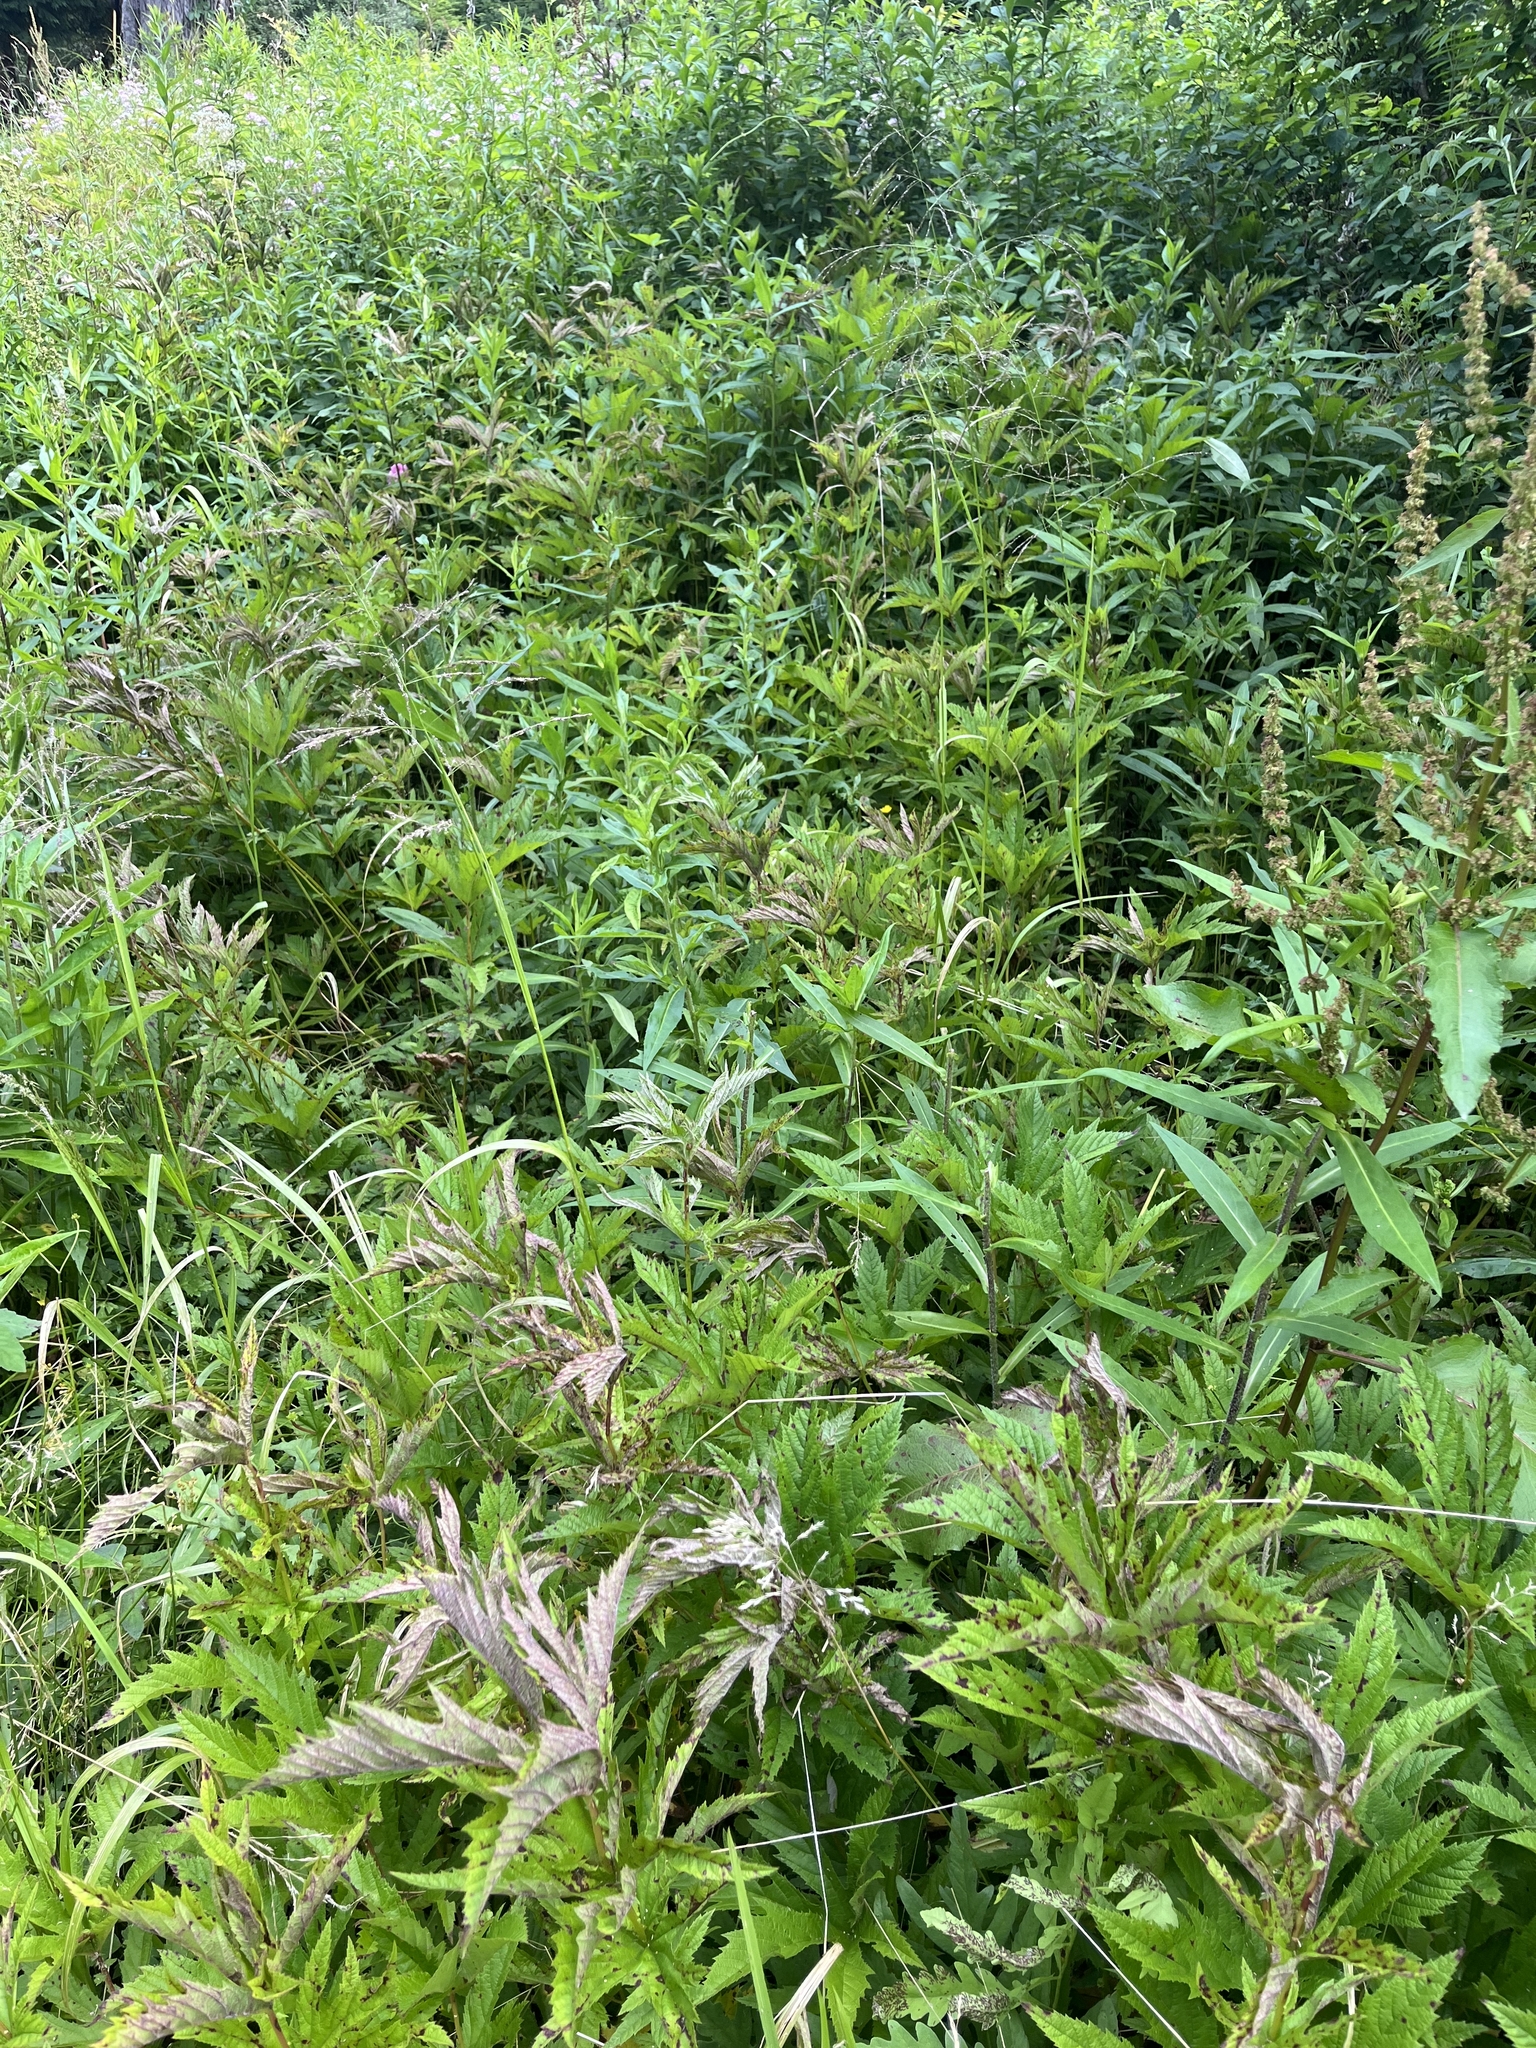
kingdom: Plantae
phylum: Tracheophyta
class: Magnoliopsida
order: Rosales
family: Rosaceae
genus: Filipendula
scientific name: Filipendula rubra
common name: Queen-of-the-prairie
